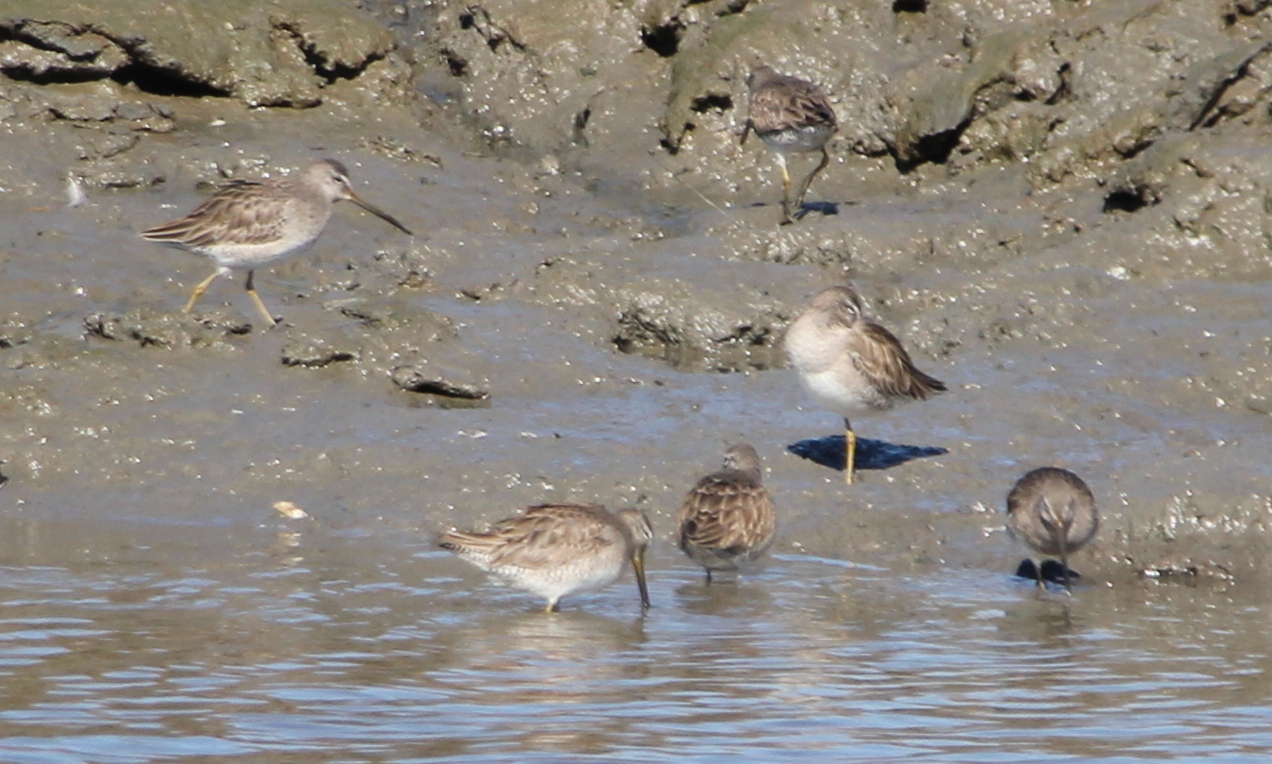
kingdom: Animalia
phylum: Chordata
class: Aves
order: Charadriiformes
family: Scolopacidae
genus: Limnodromus
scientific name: Limnodromus
